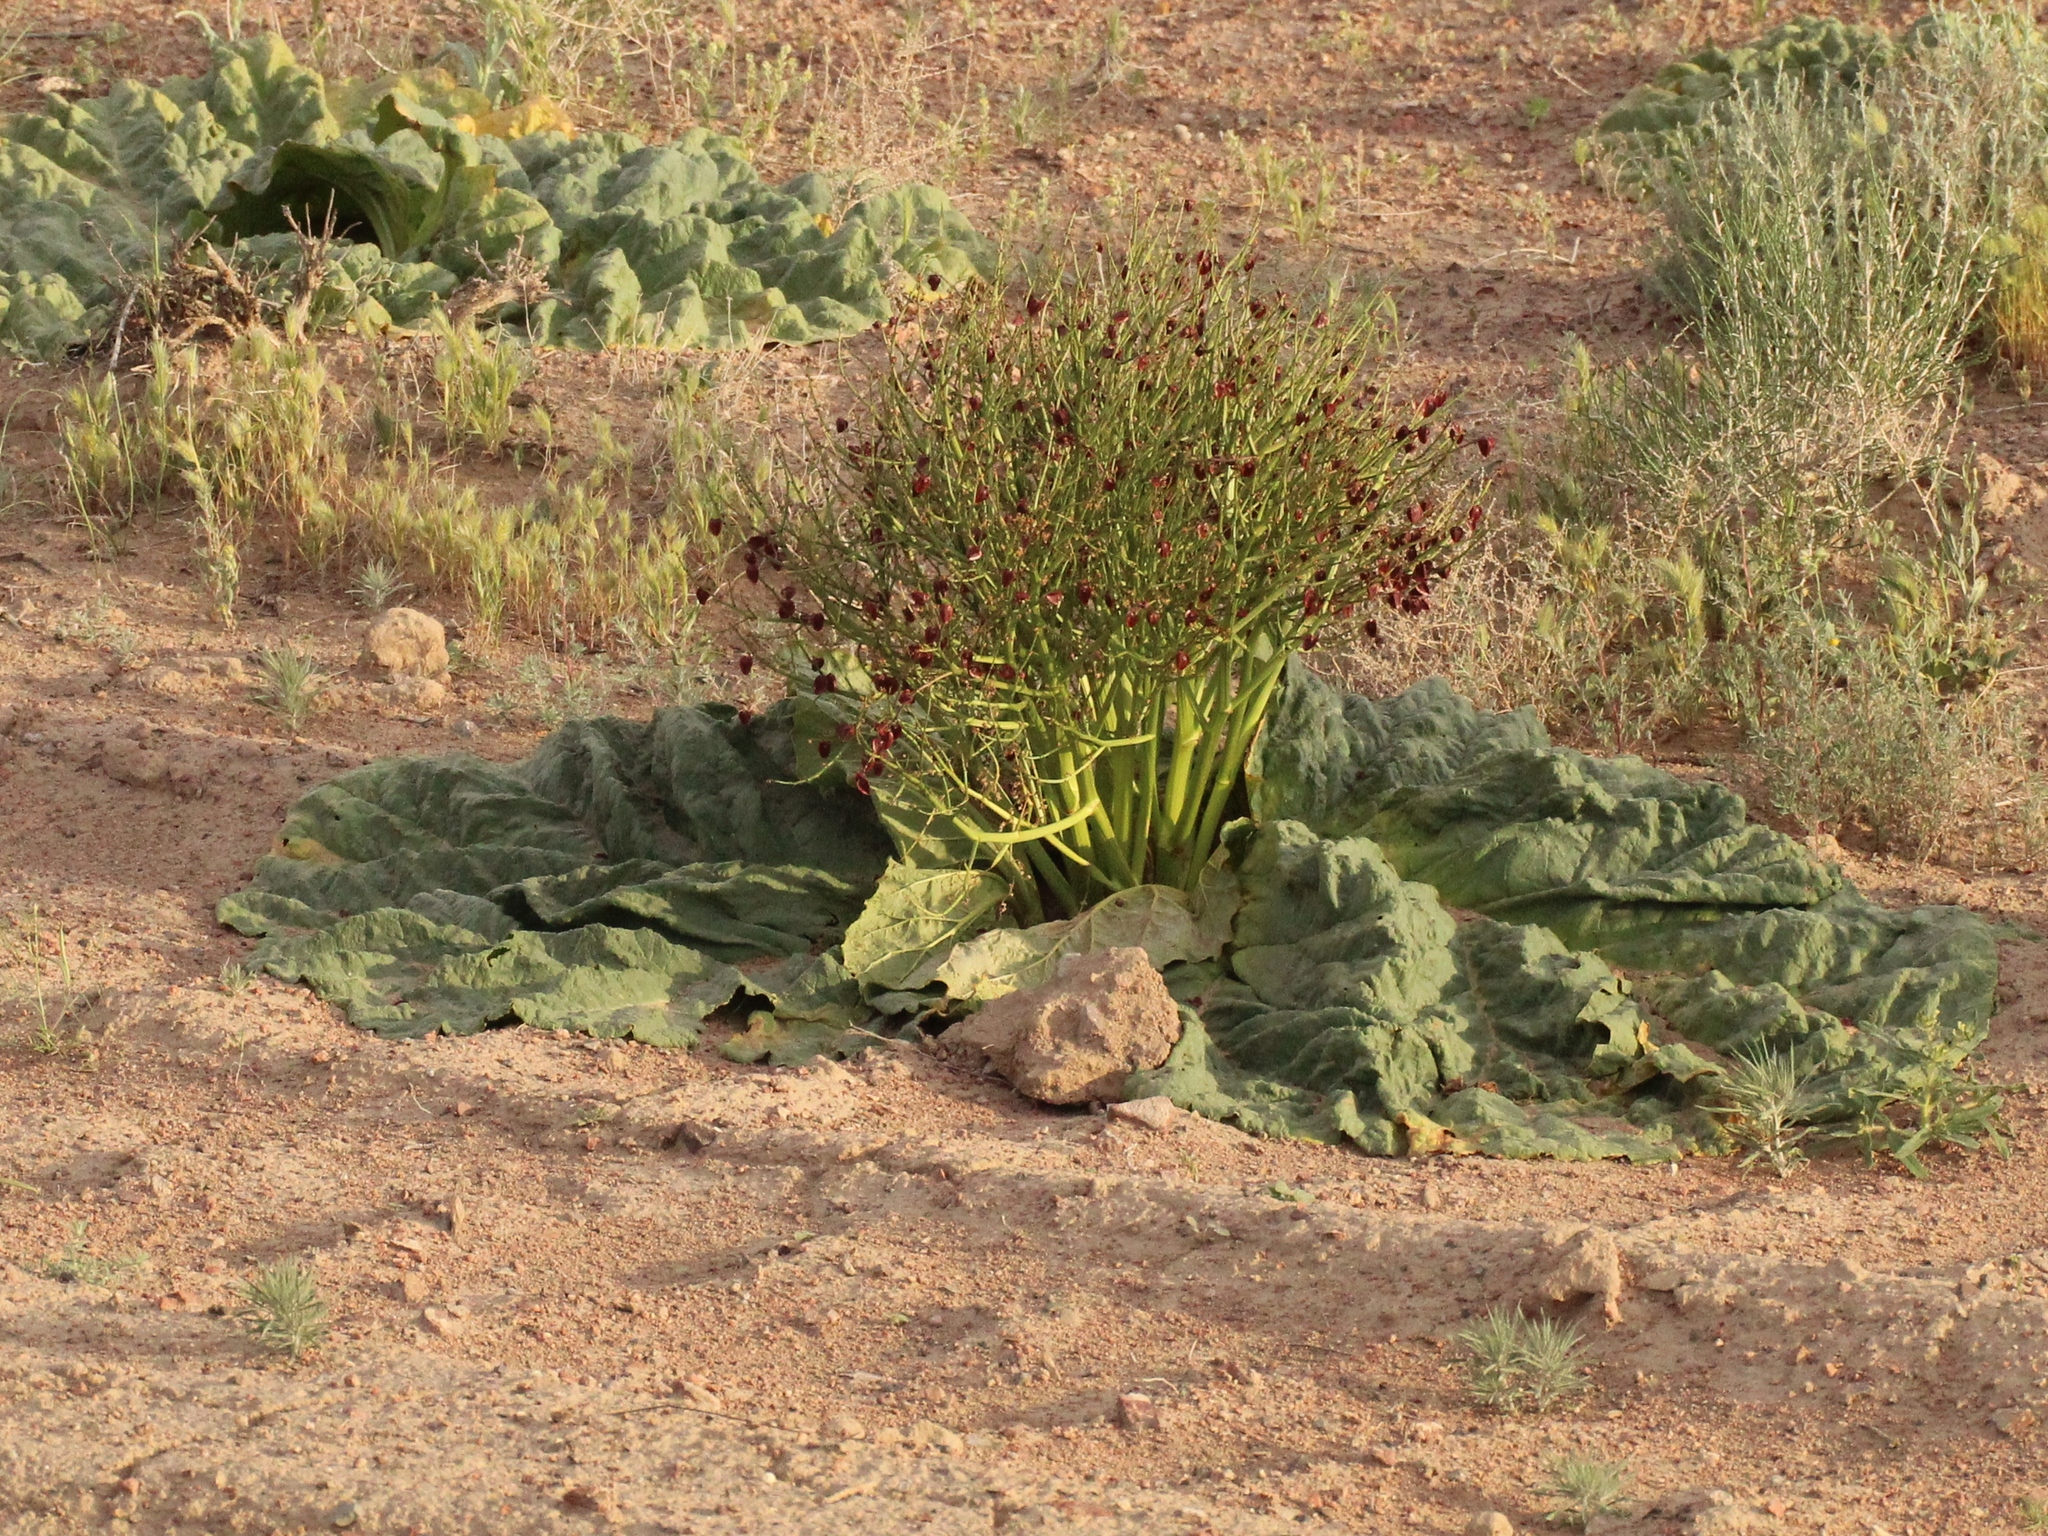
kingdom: Plantae
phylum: Tracheophyta
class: Magnoliopsida
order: Caryophyllales
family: Polygonaceae
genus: Rheum
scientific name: Rheum tataricum
